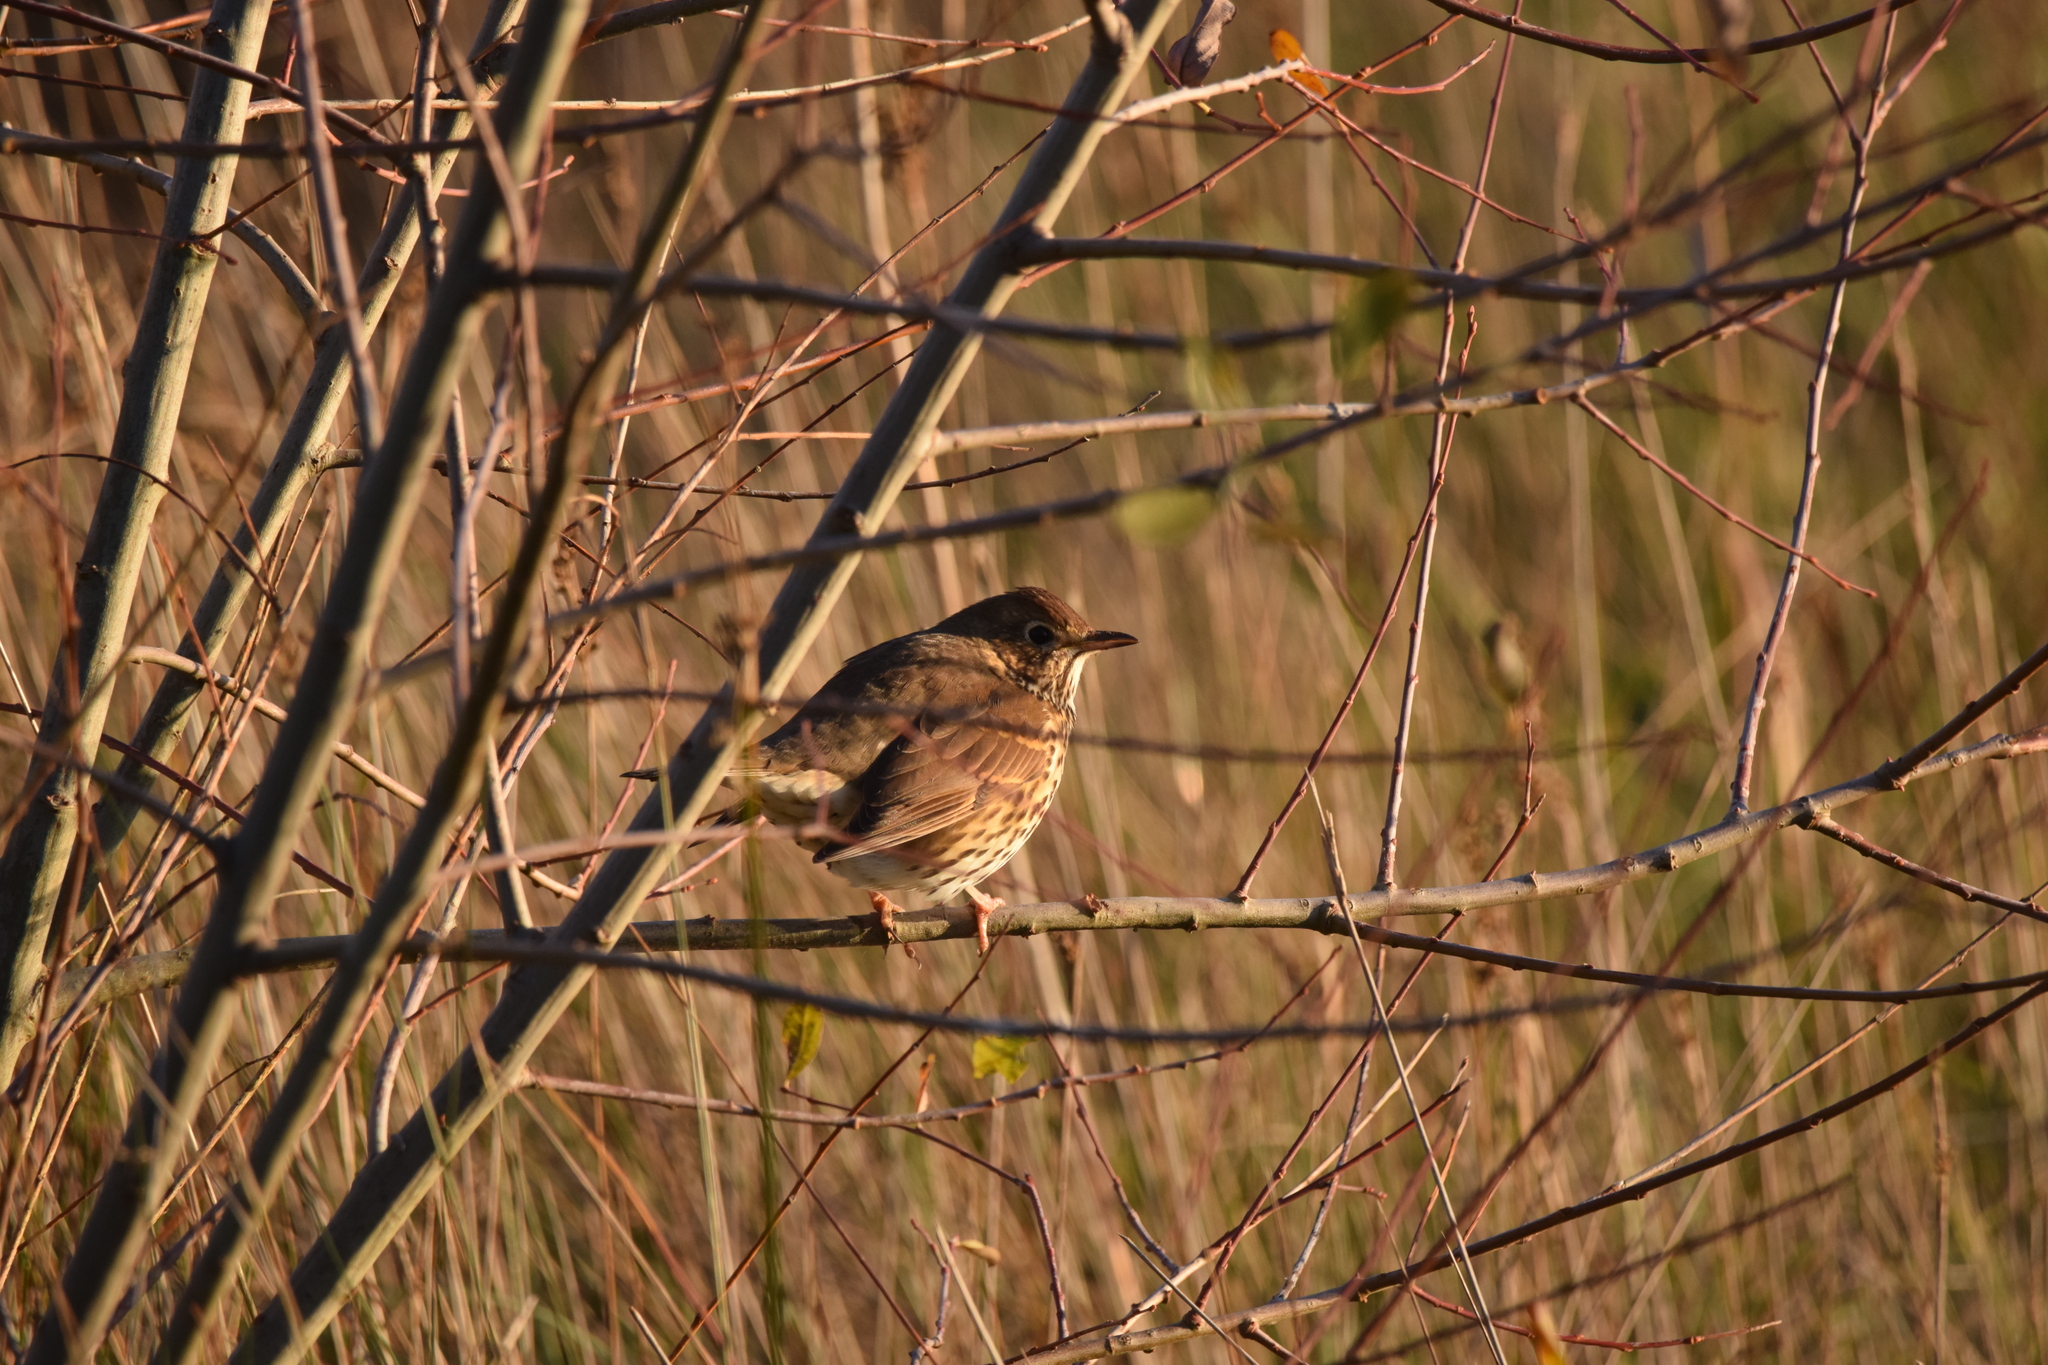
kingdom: Animalia
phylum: Chordata
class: Aves
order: Passeriformes
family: Turdidae
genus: Turdus
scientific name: Turdus philomelos
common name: Song thrush
